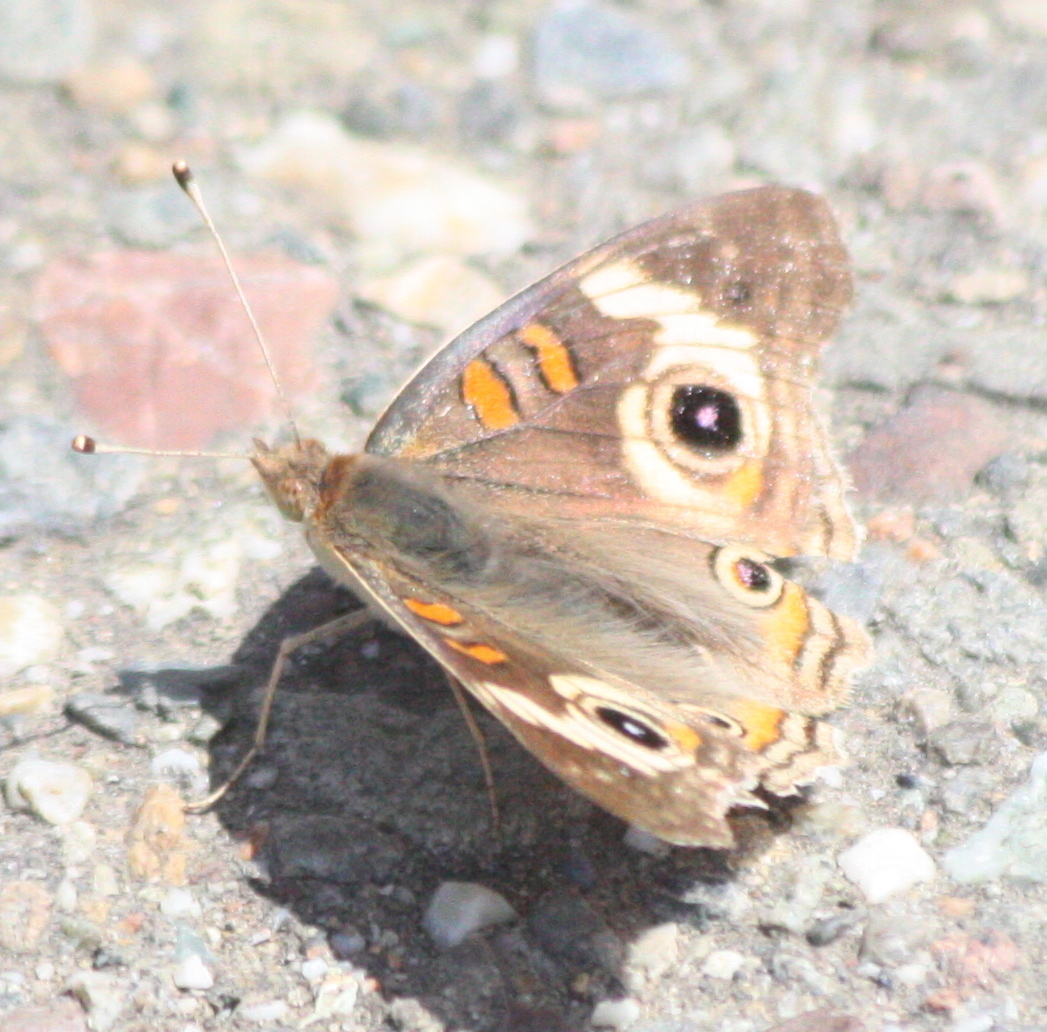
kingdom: Animalia
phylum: Arthropoda
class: Insecta
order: Lepidoptera
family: Nymphalidae
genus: Junonia
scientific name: Junonia grisea
